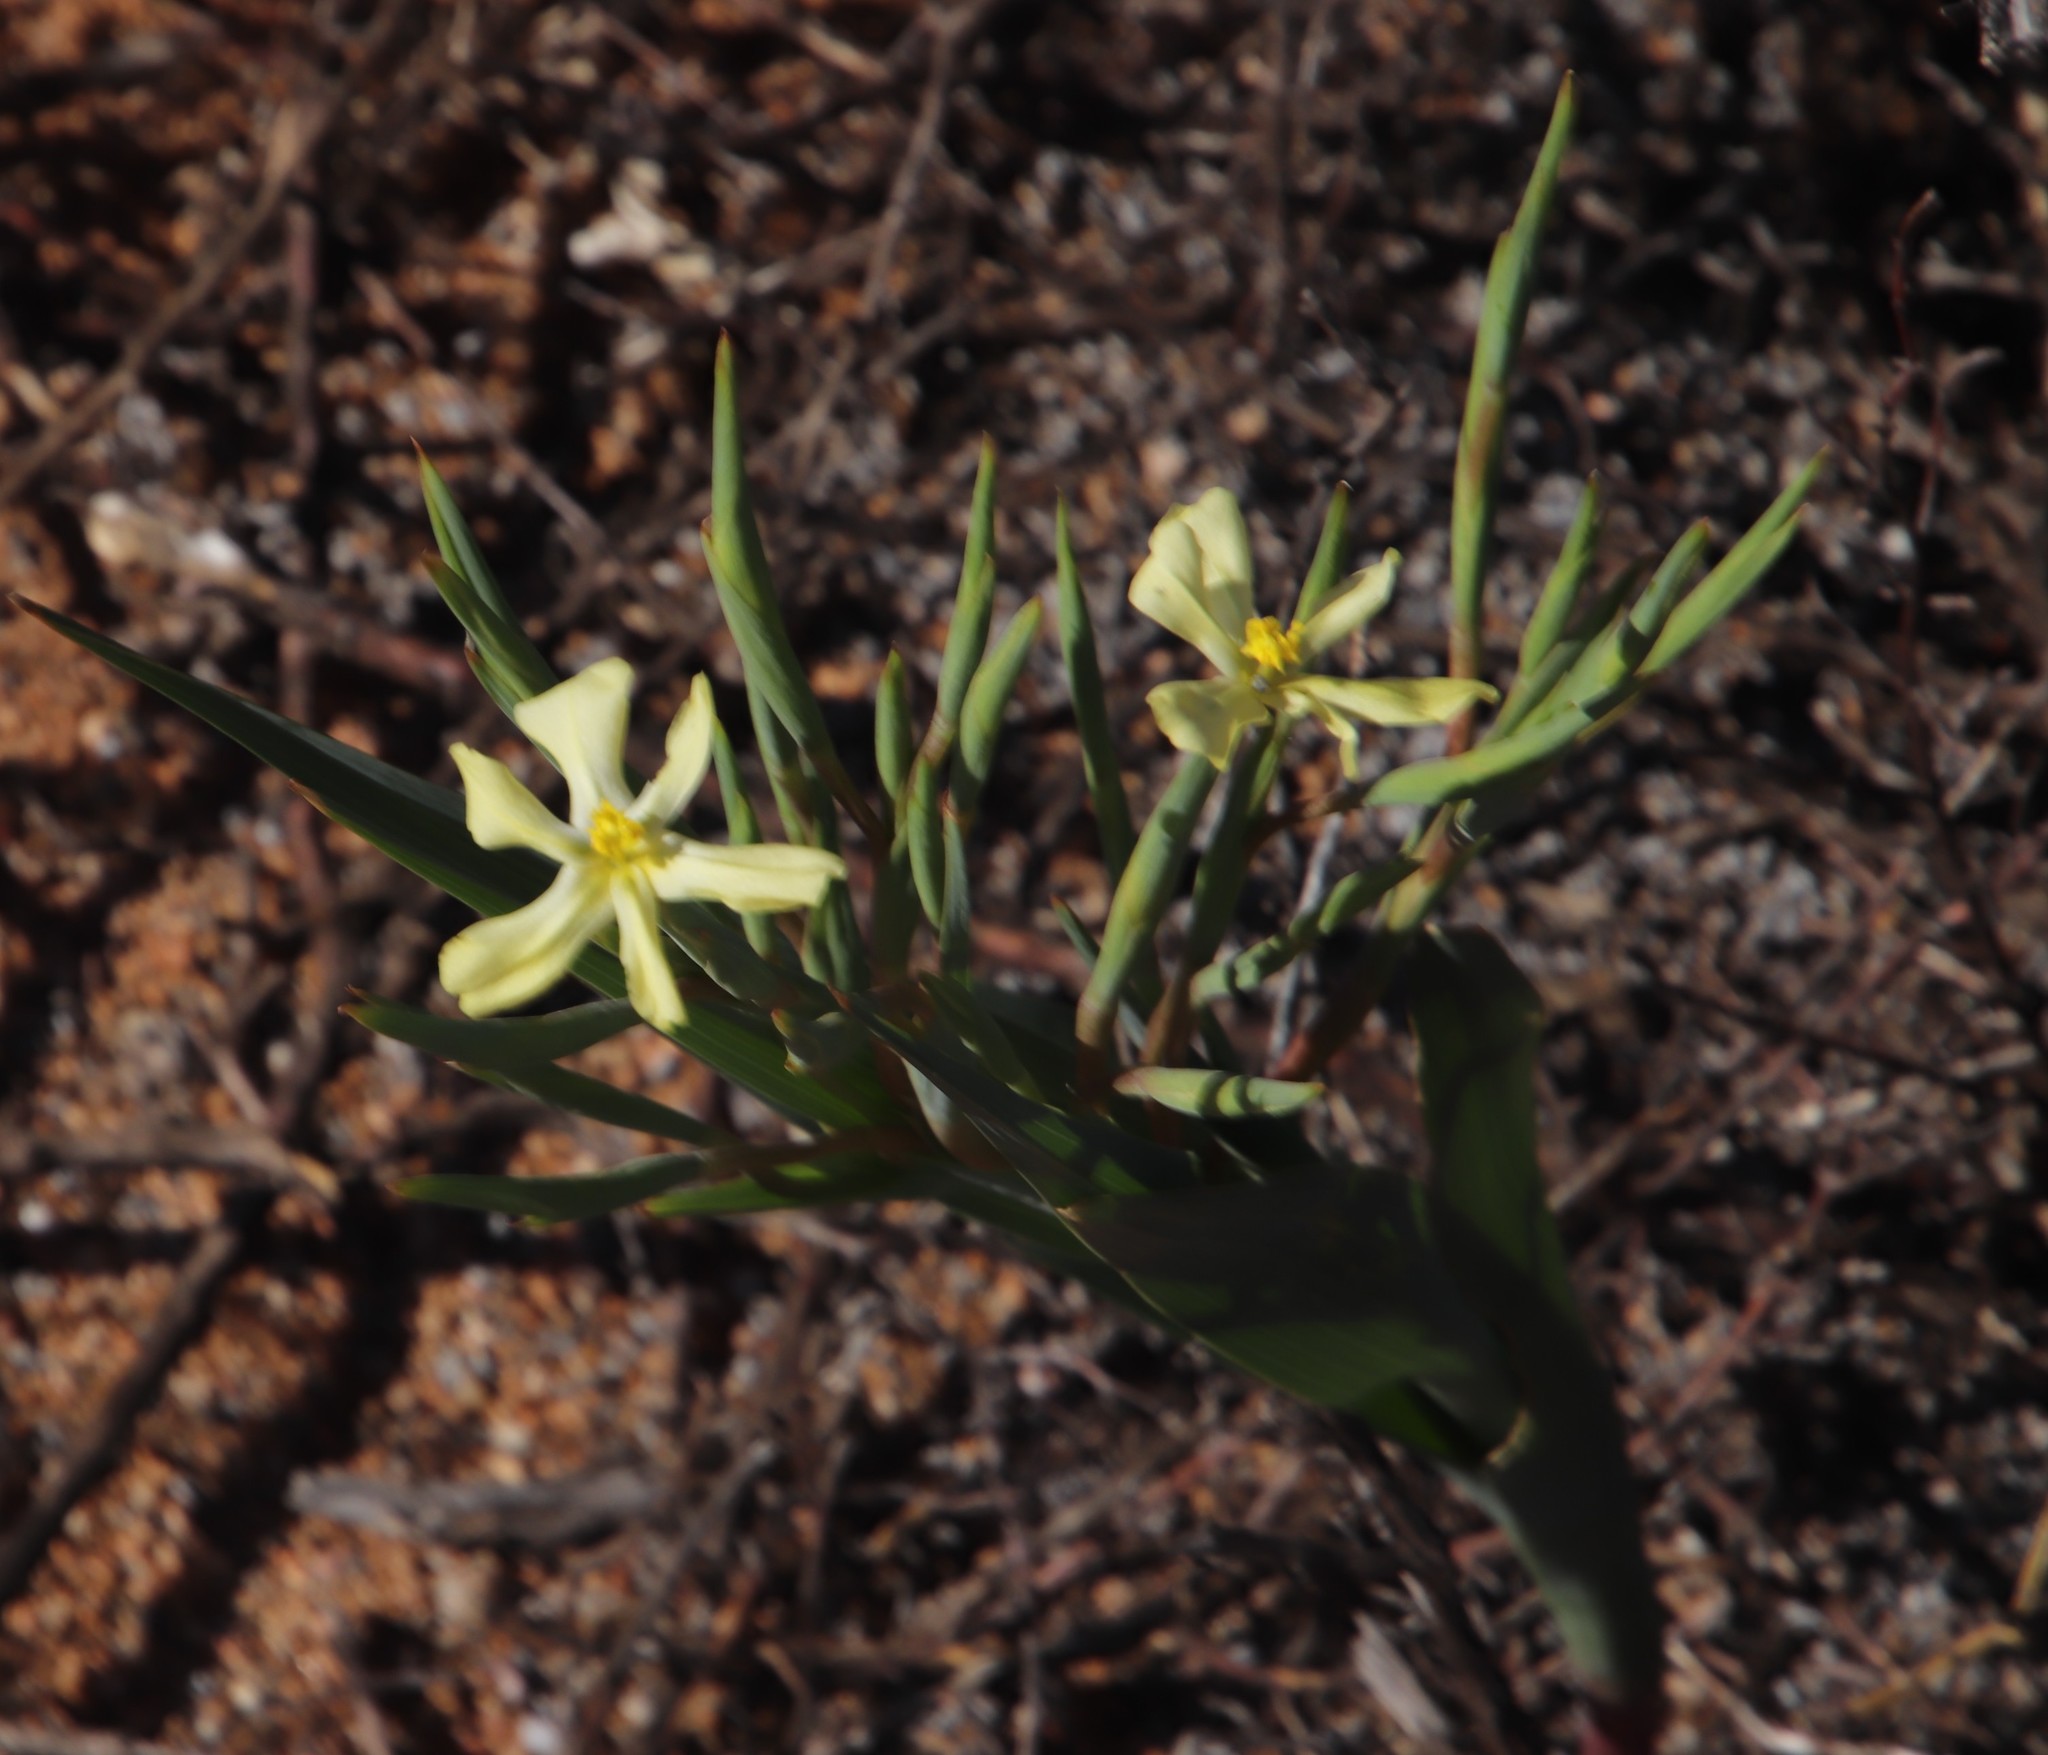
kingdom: Plantae
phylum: Tracheophyta
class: Liliopsida
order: Asparagales
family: Iridaceae
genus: Moraea
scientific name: Moraea schlechteri
